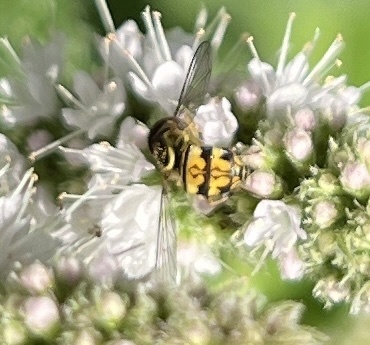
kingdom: Animalia
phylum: Arthropoda
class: Insecta
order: Diptera
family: Syrphidae
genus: Toxomerus
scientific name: Toxomerus geminatus
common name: Eastern calligrapher
